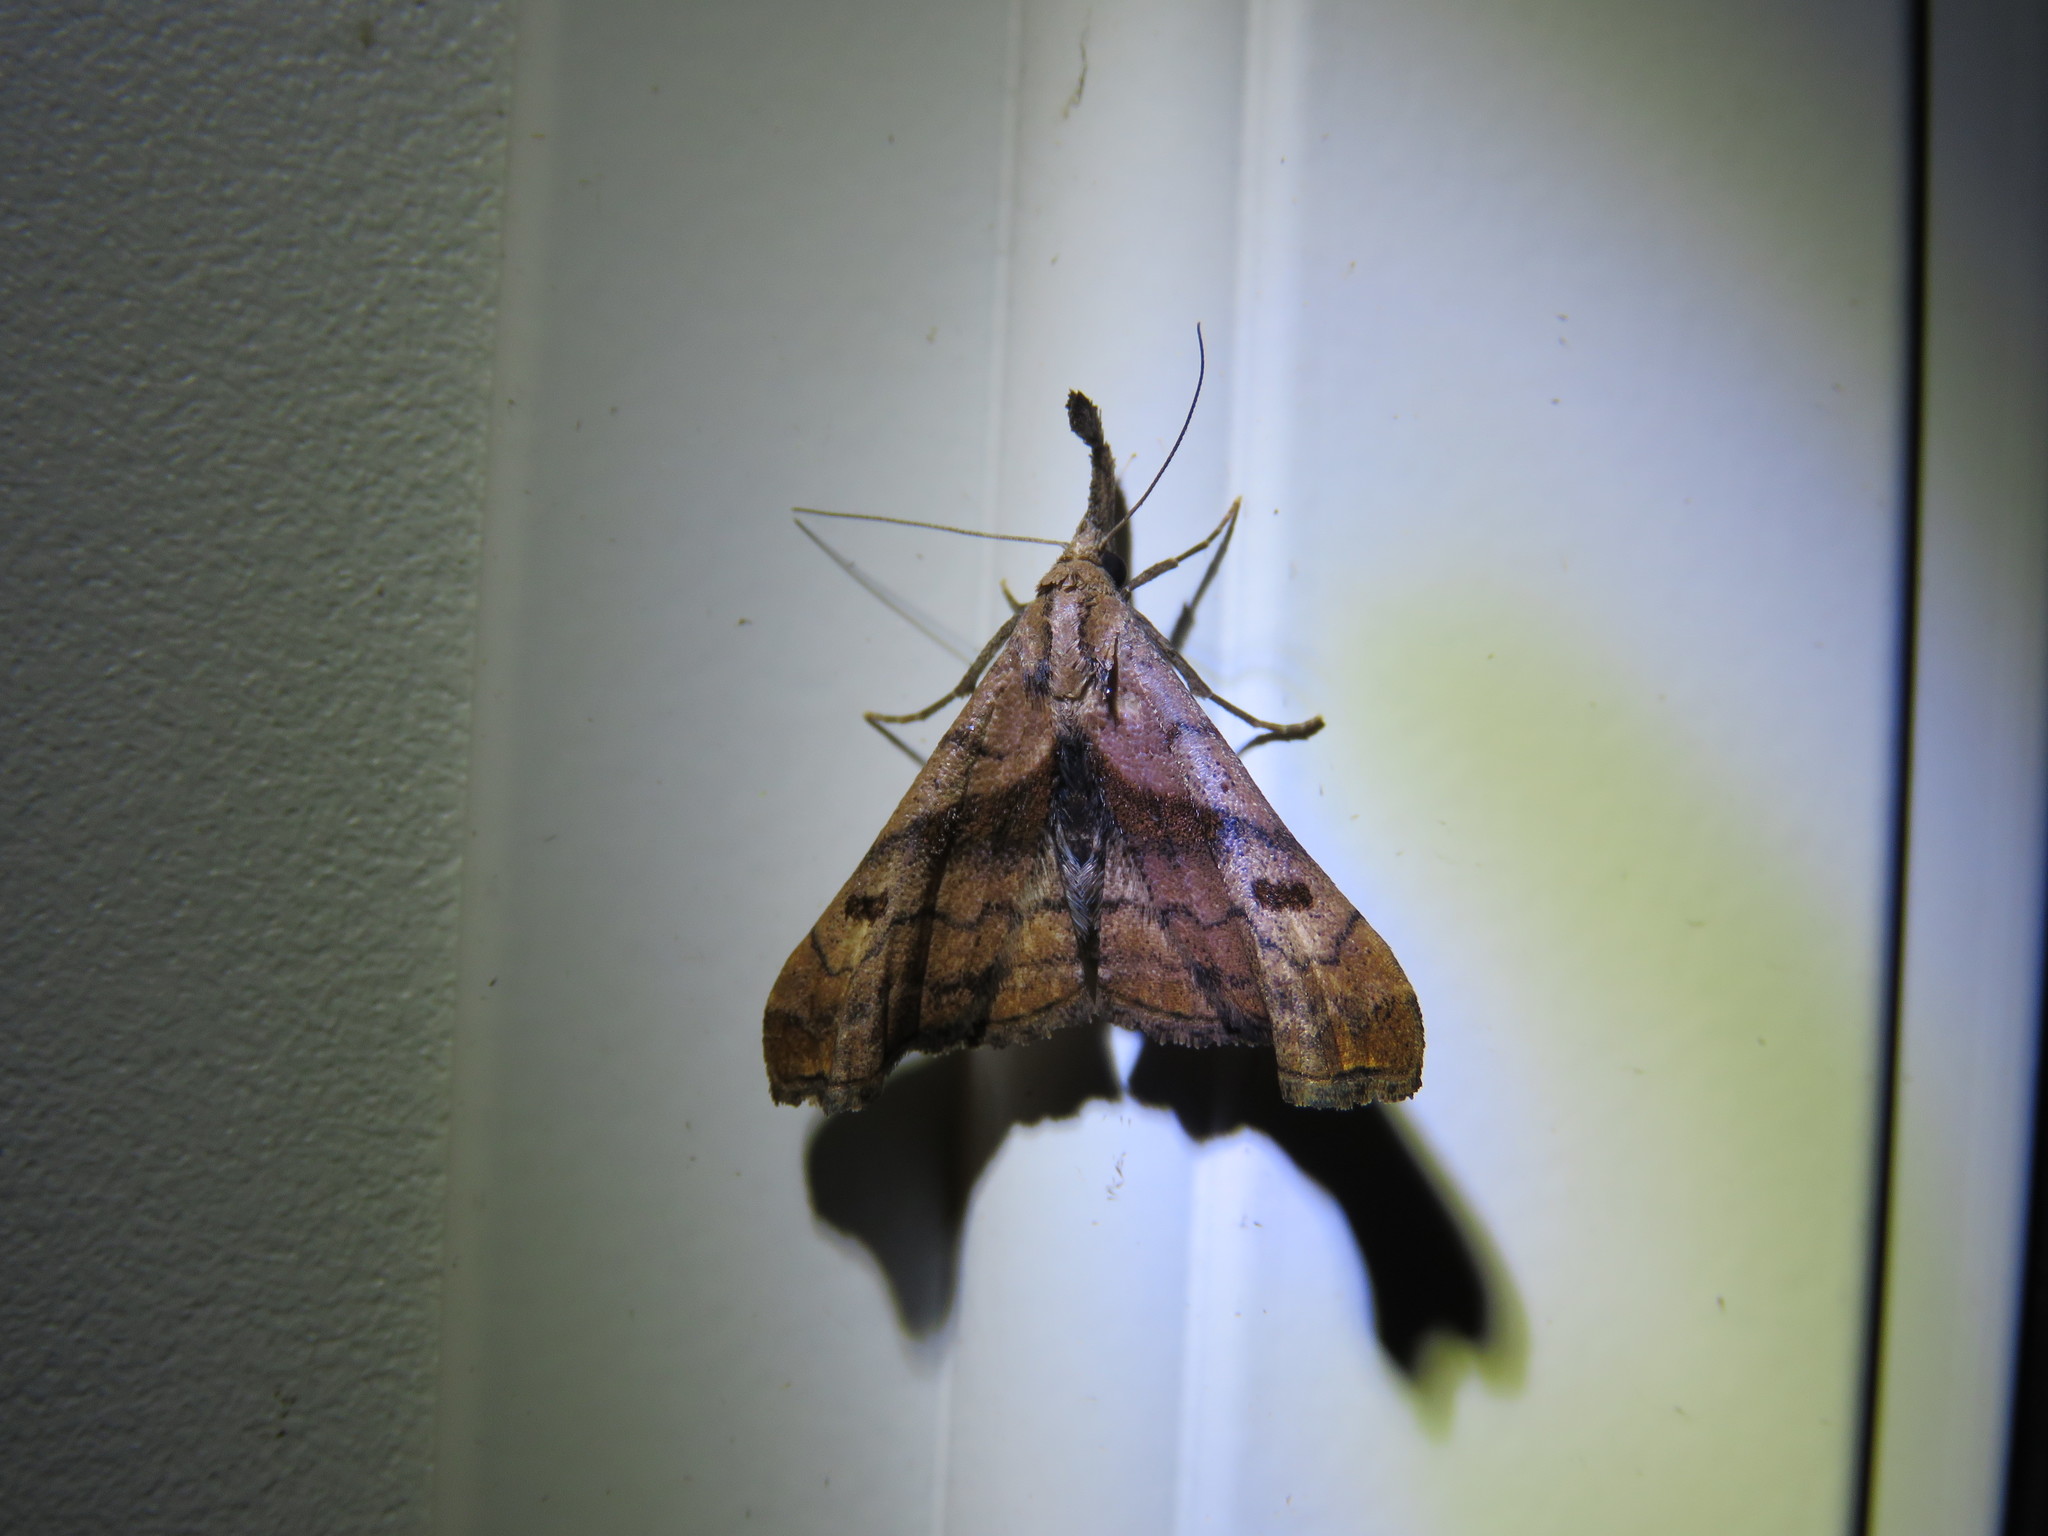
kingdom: Animalia
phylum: Arthropoda
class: Insecta
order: Lepidoptera
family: Erebidae
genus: Palthis
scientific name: Palthis angulalis
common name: Dark-spotted palthis moth
